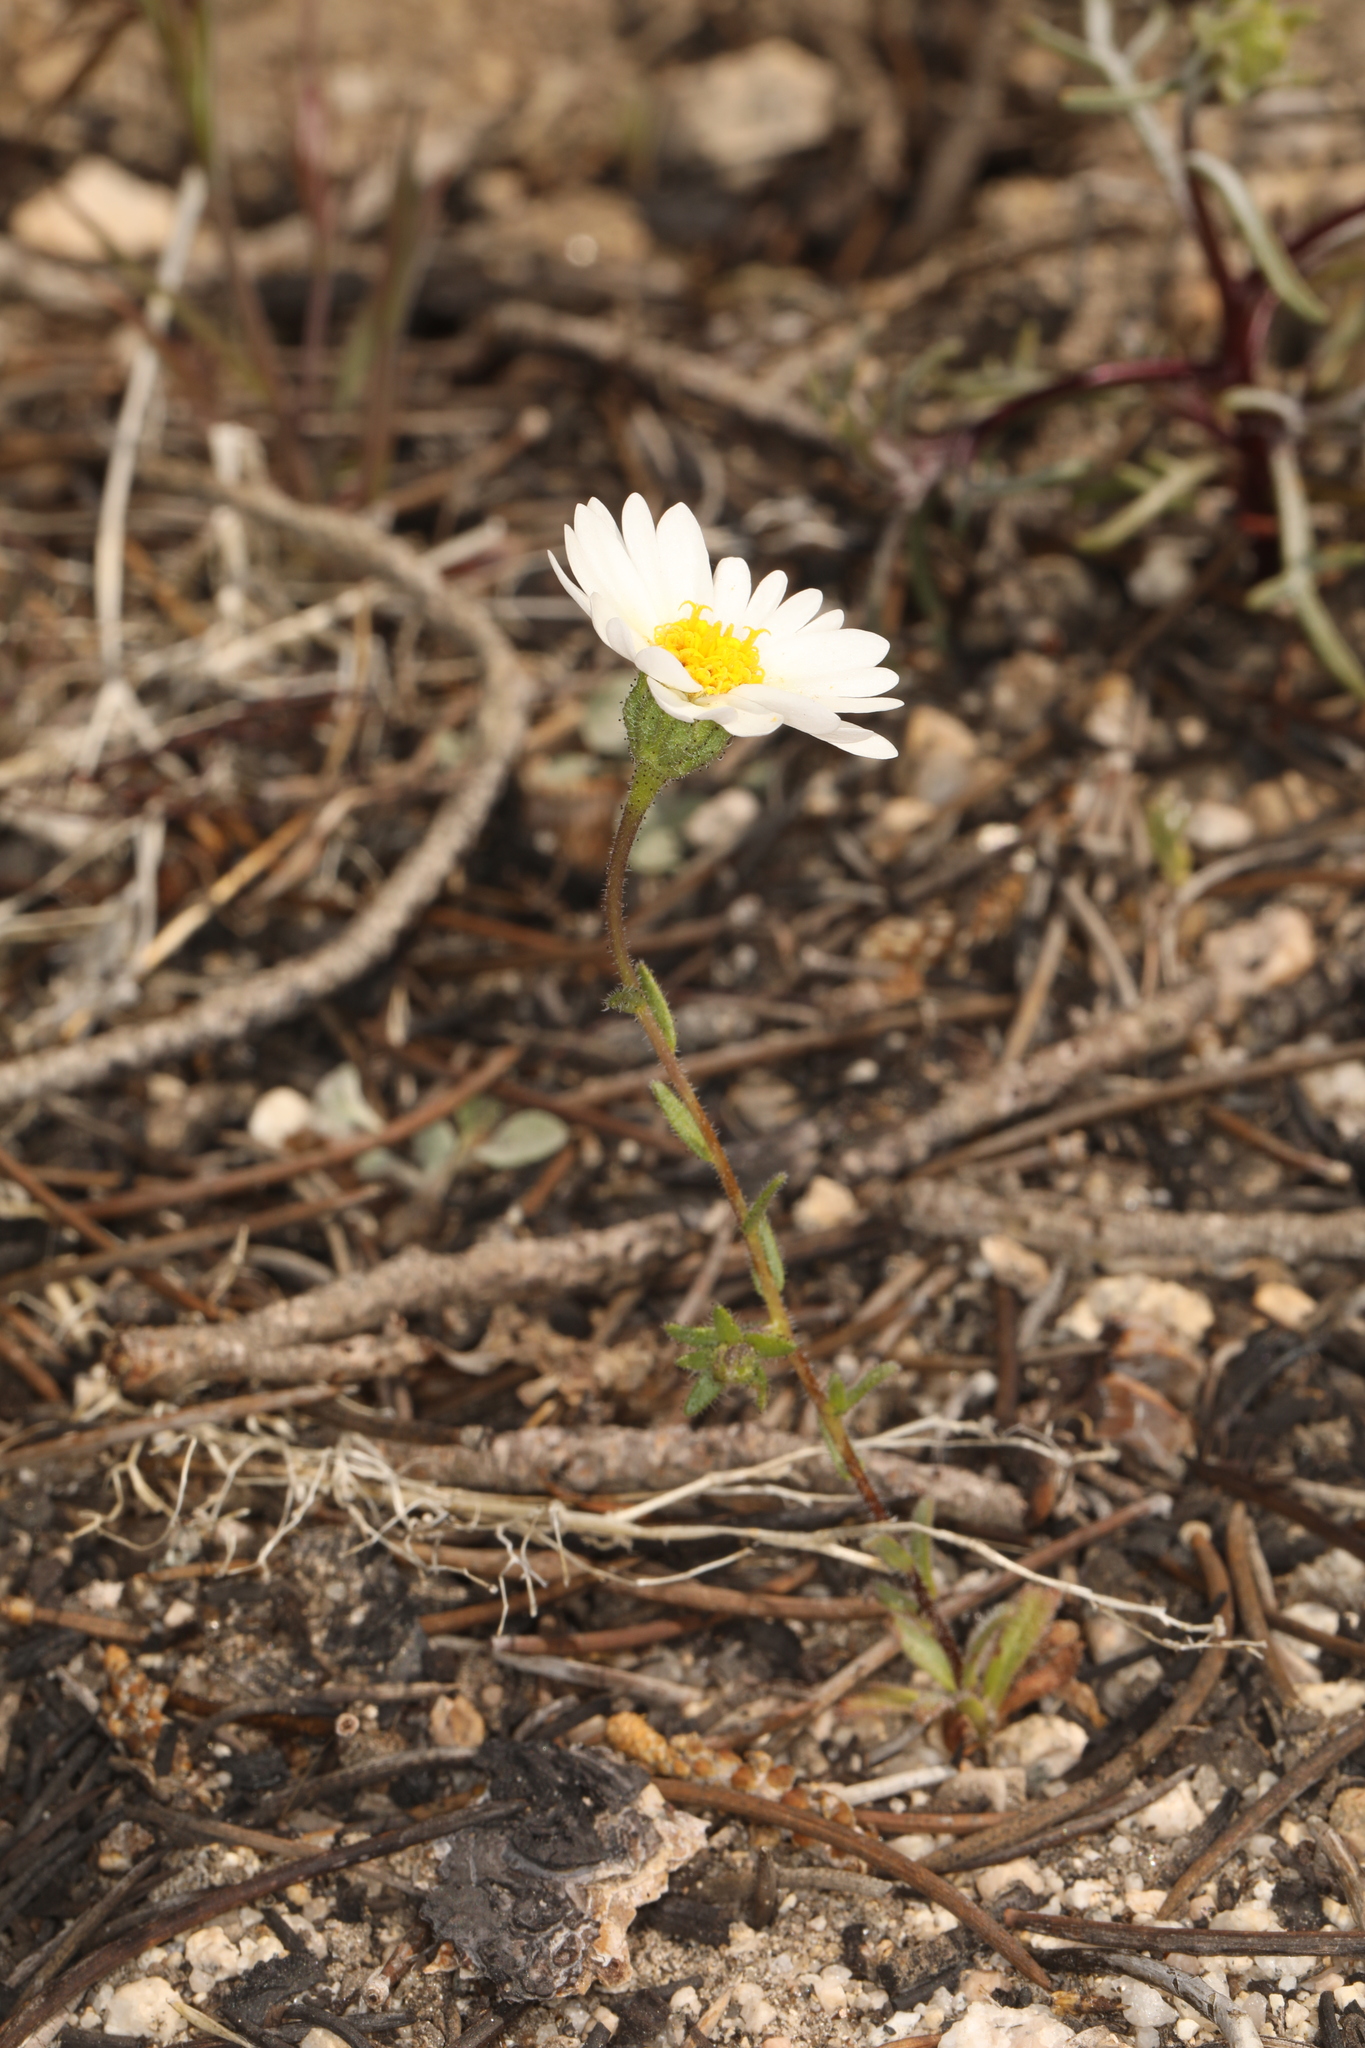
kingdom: Plantae
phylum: Tracheophyta
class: Magnoliopsida
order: Asterales
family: Asteraceae
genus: Layia
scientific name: Layia glandulosa
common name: White layia
